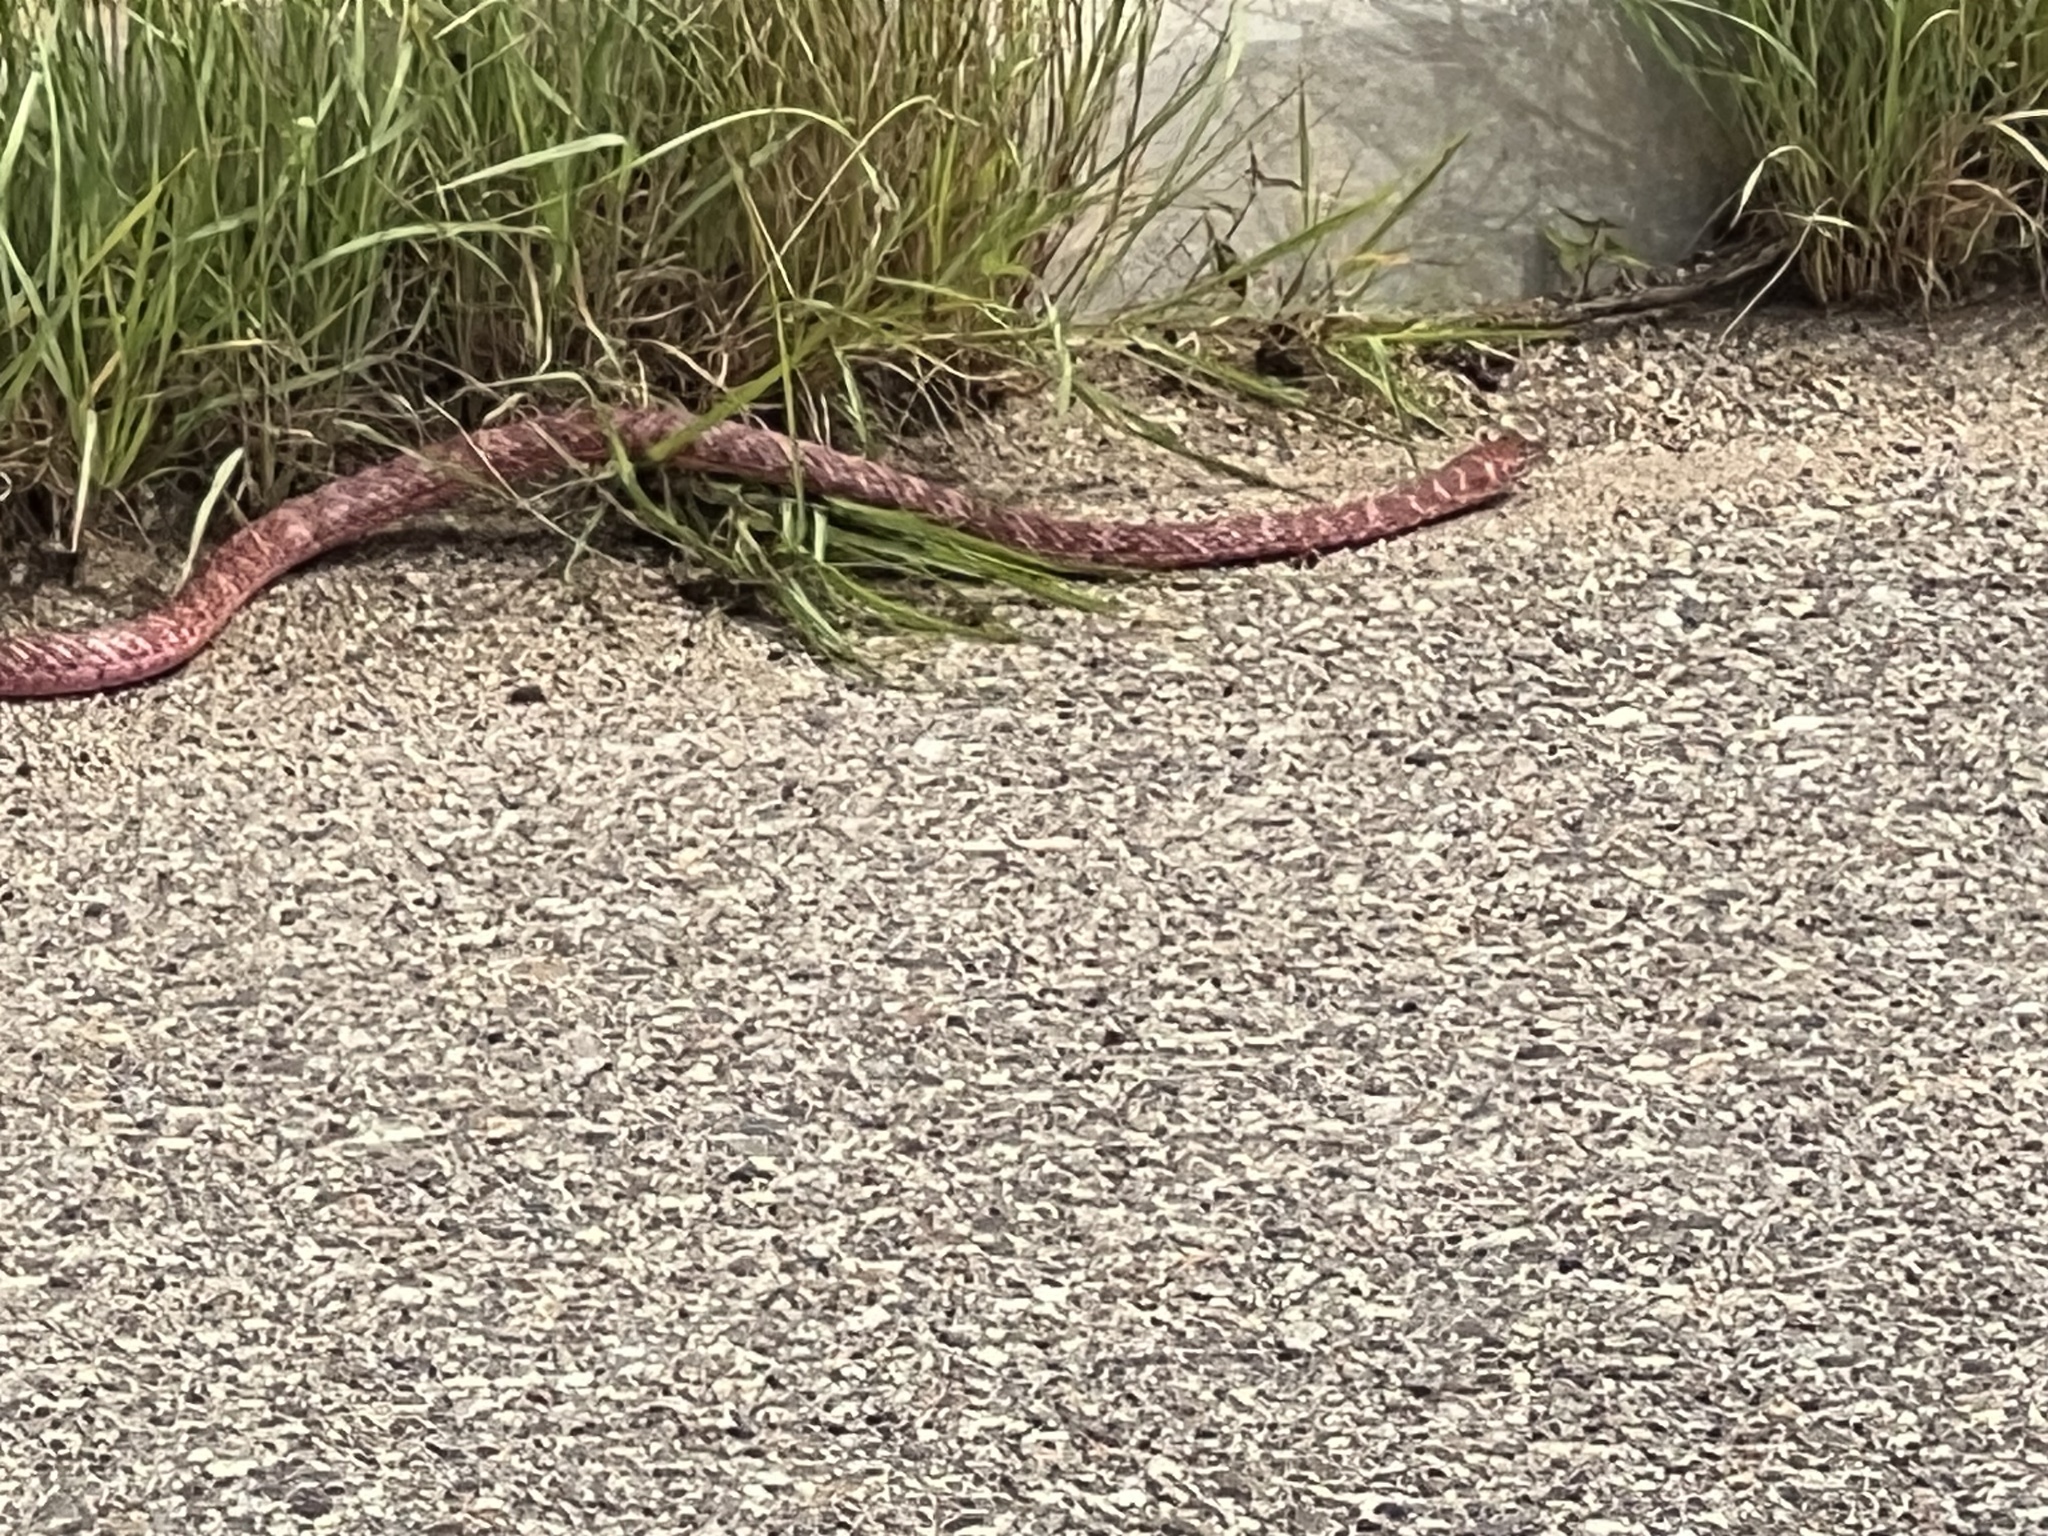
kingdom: Animalia
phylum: Chordata
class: Squamata
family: Colubridae
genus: Masticophis
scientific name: Masticophis flagellum
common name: Coachwhip
